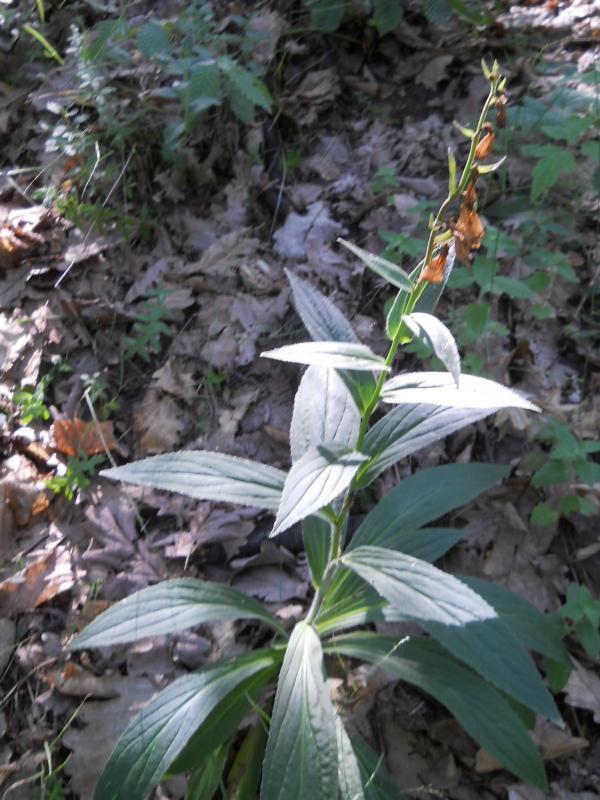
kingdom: Plantae
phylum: Tracheophyta
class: Magnoliopsida
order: Lamiales
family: Plantaginaceae
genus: Digitalis
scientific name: Digitalis grandiflora
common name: Yellow foxglove
